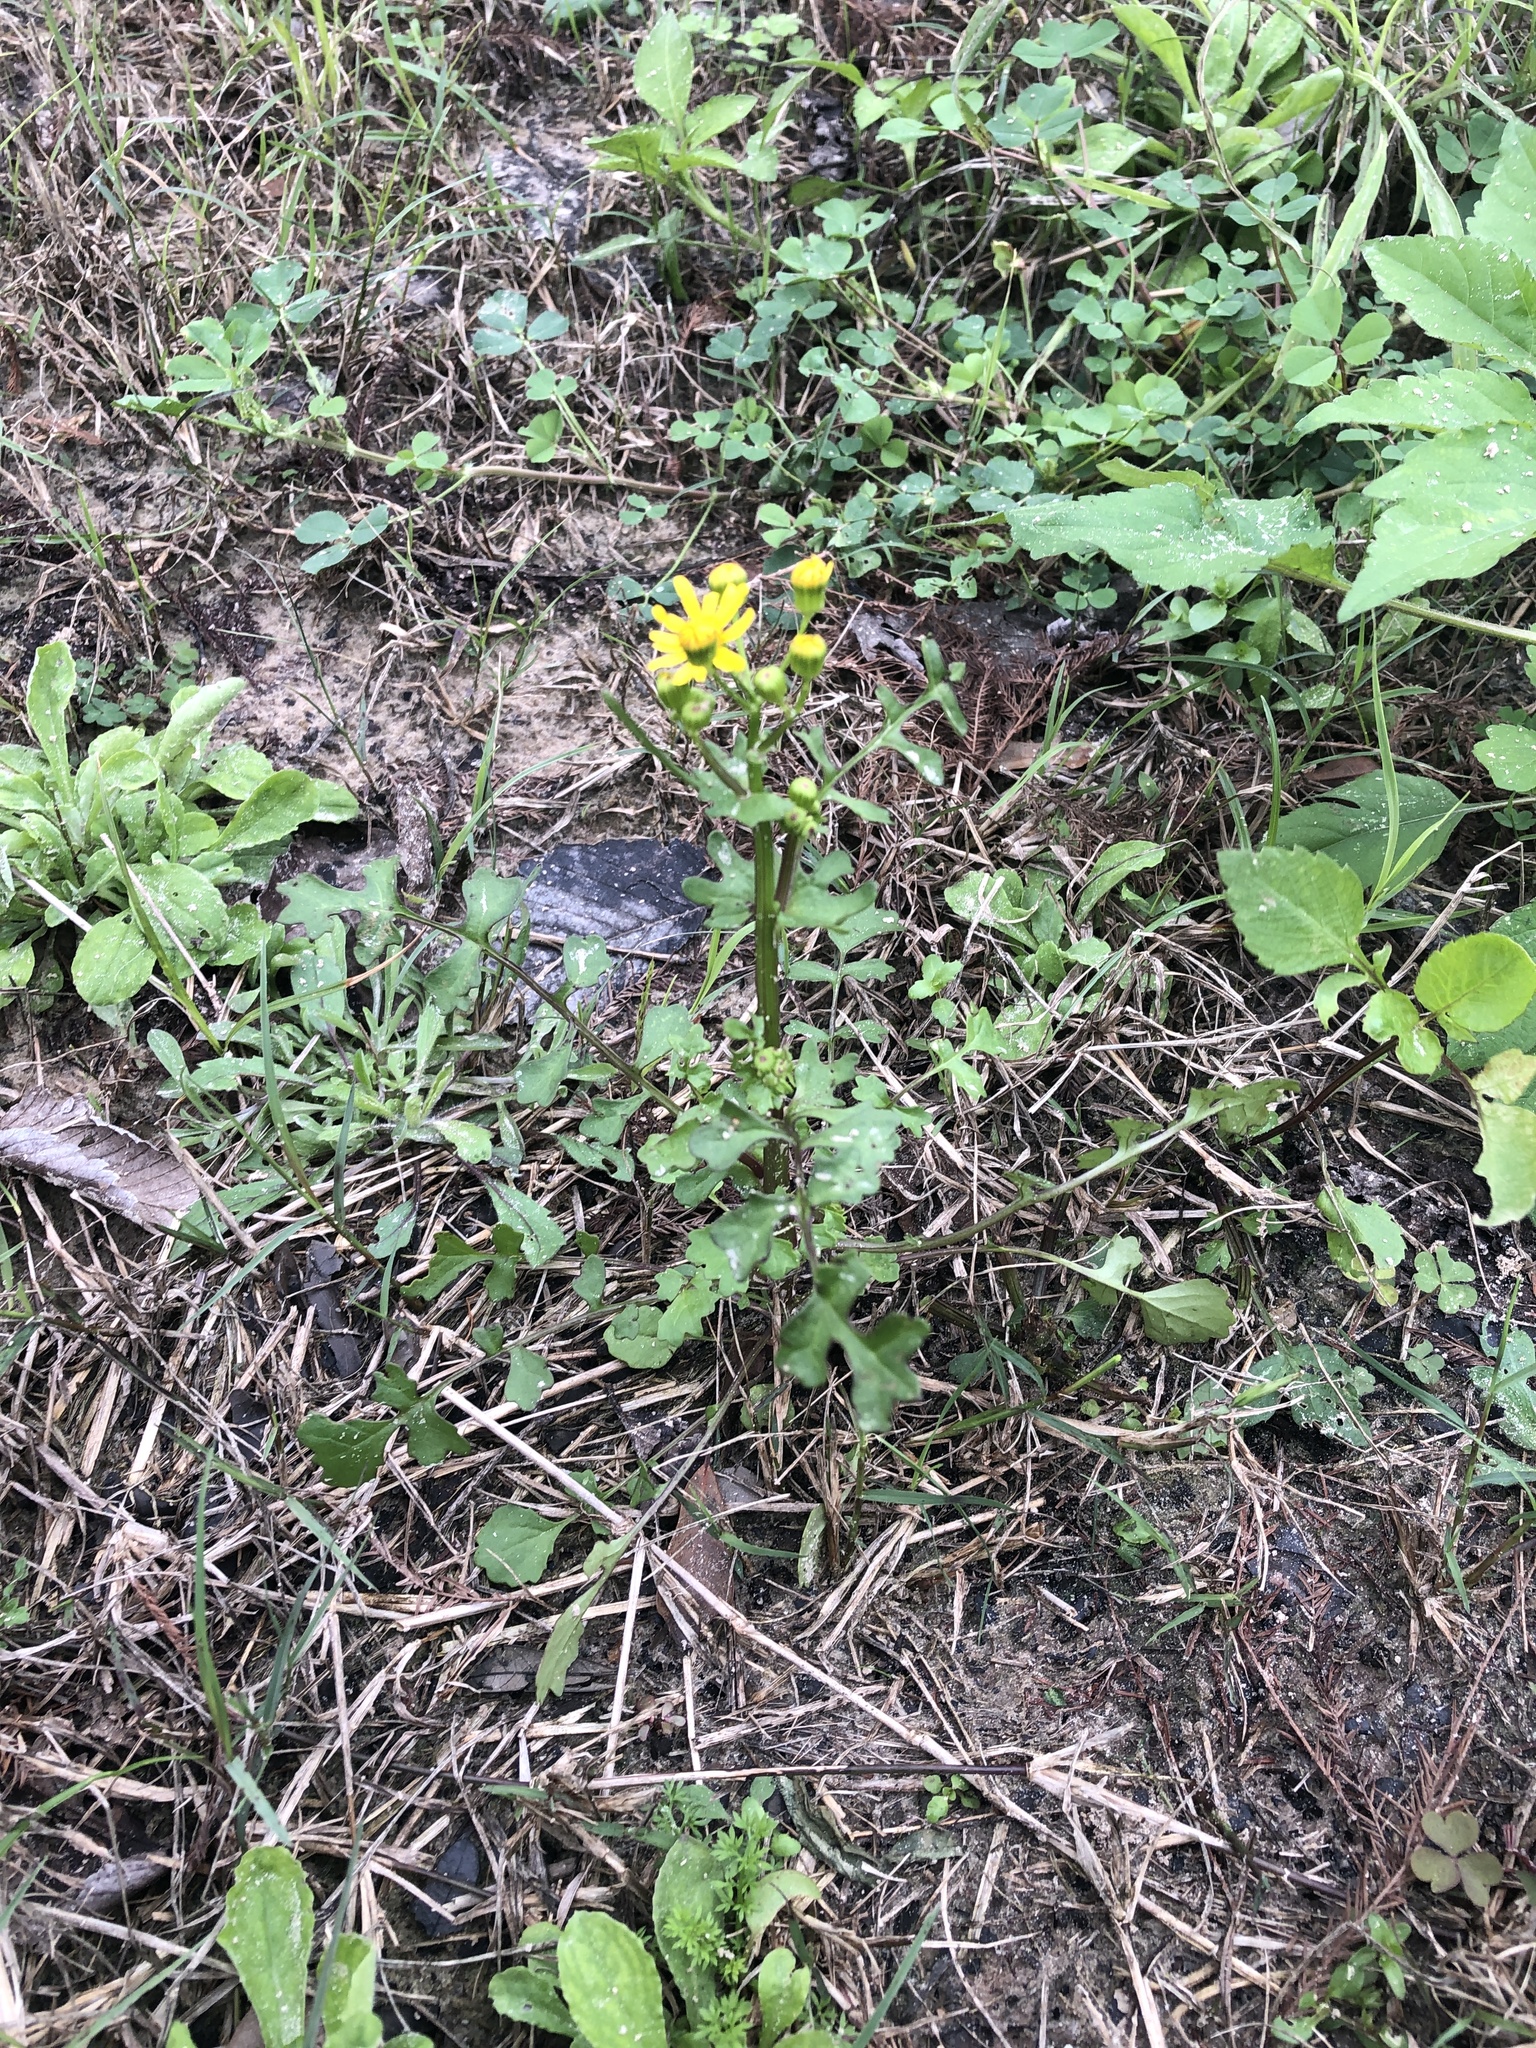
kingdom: Plantae
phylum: Tracheophyta
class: Magnoliopsida
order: Asterales
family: Asteraceae
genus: Packera
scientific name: Packera glabella
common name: Butterweed
